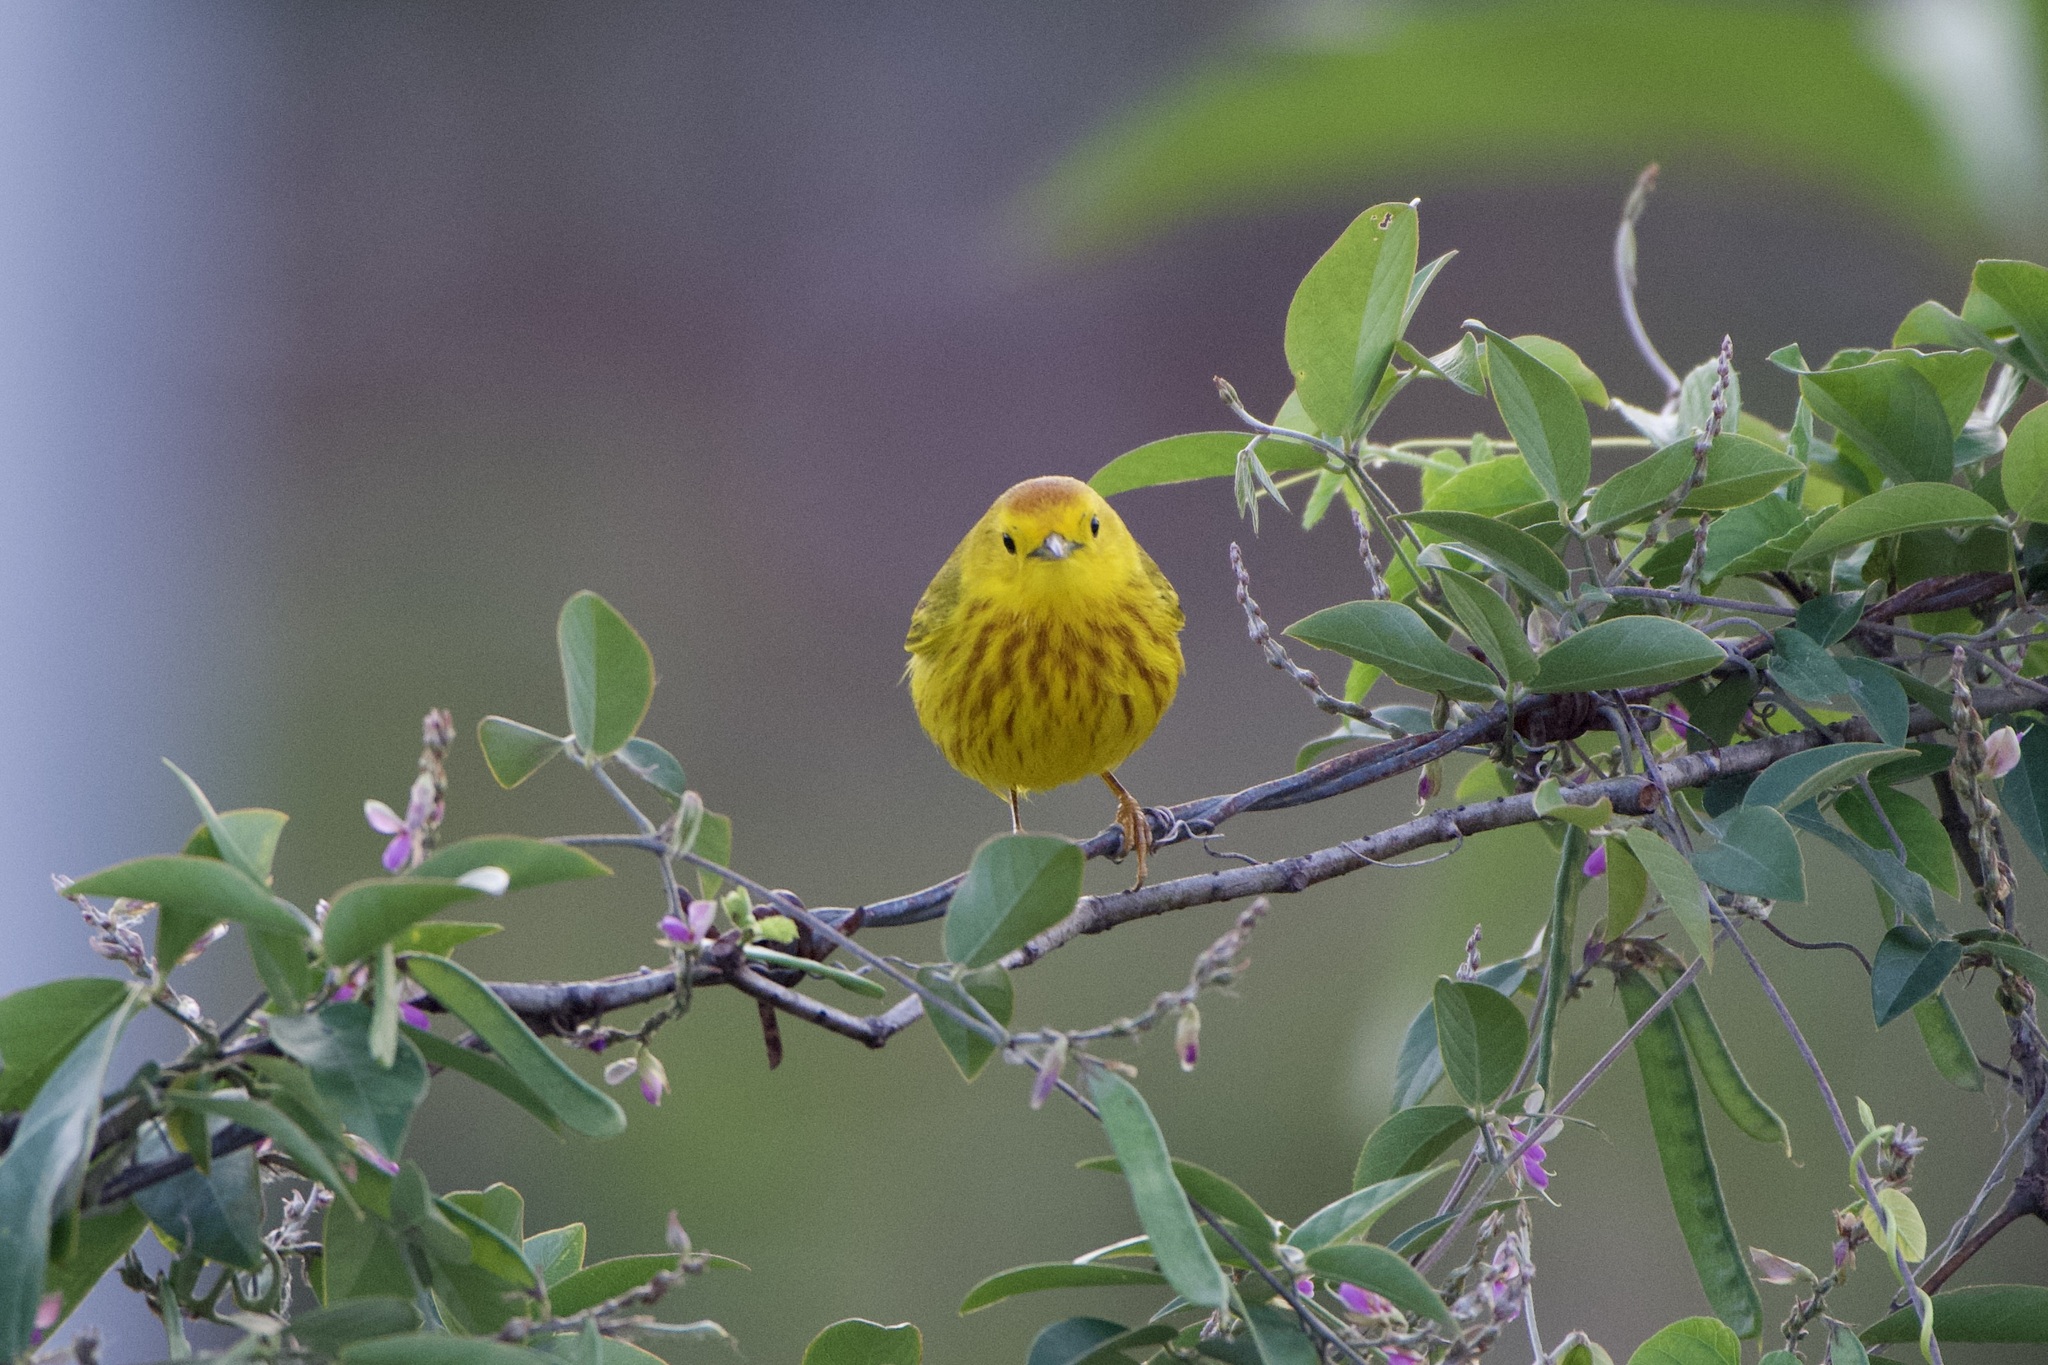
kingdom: Animalia
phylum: Chordata
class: Aves
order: Passeriformes
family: Parulidae
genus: Setophaga
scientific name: Setophaga petechia
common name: Yellow warbler
